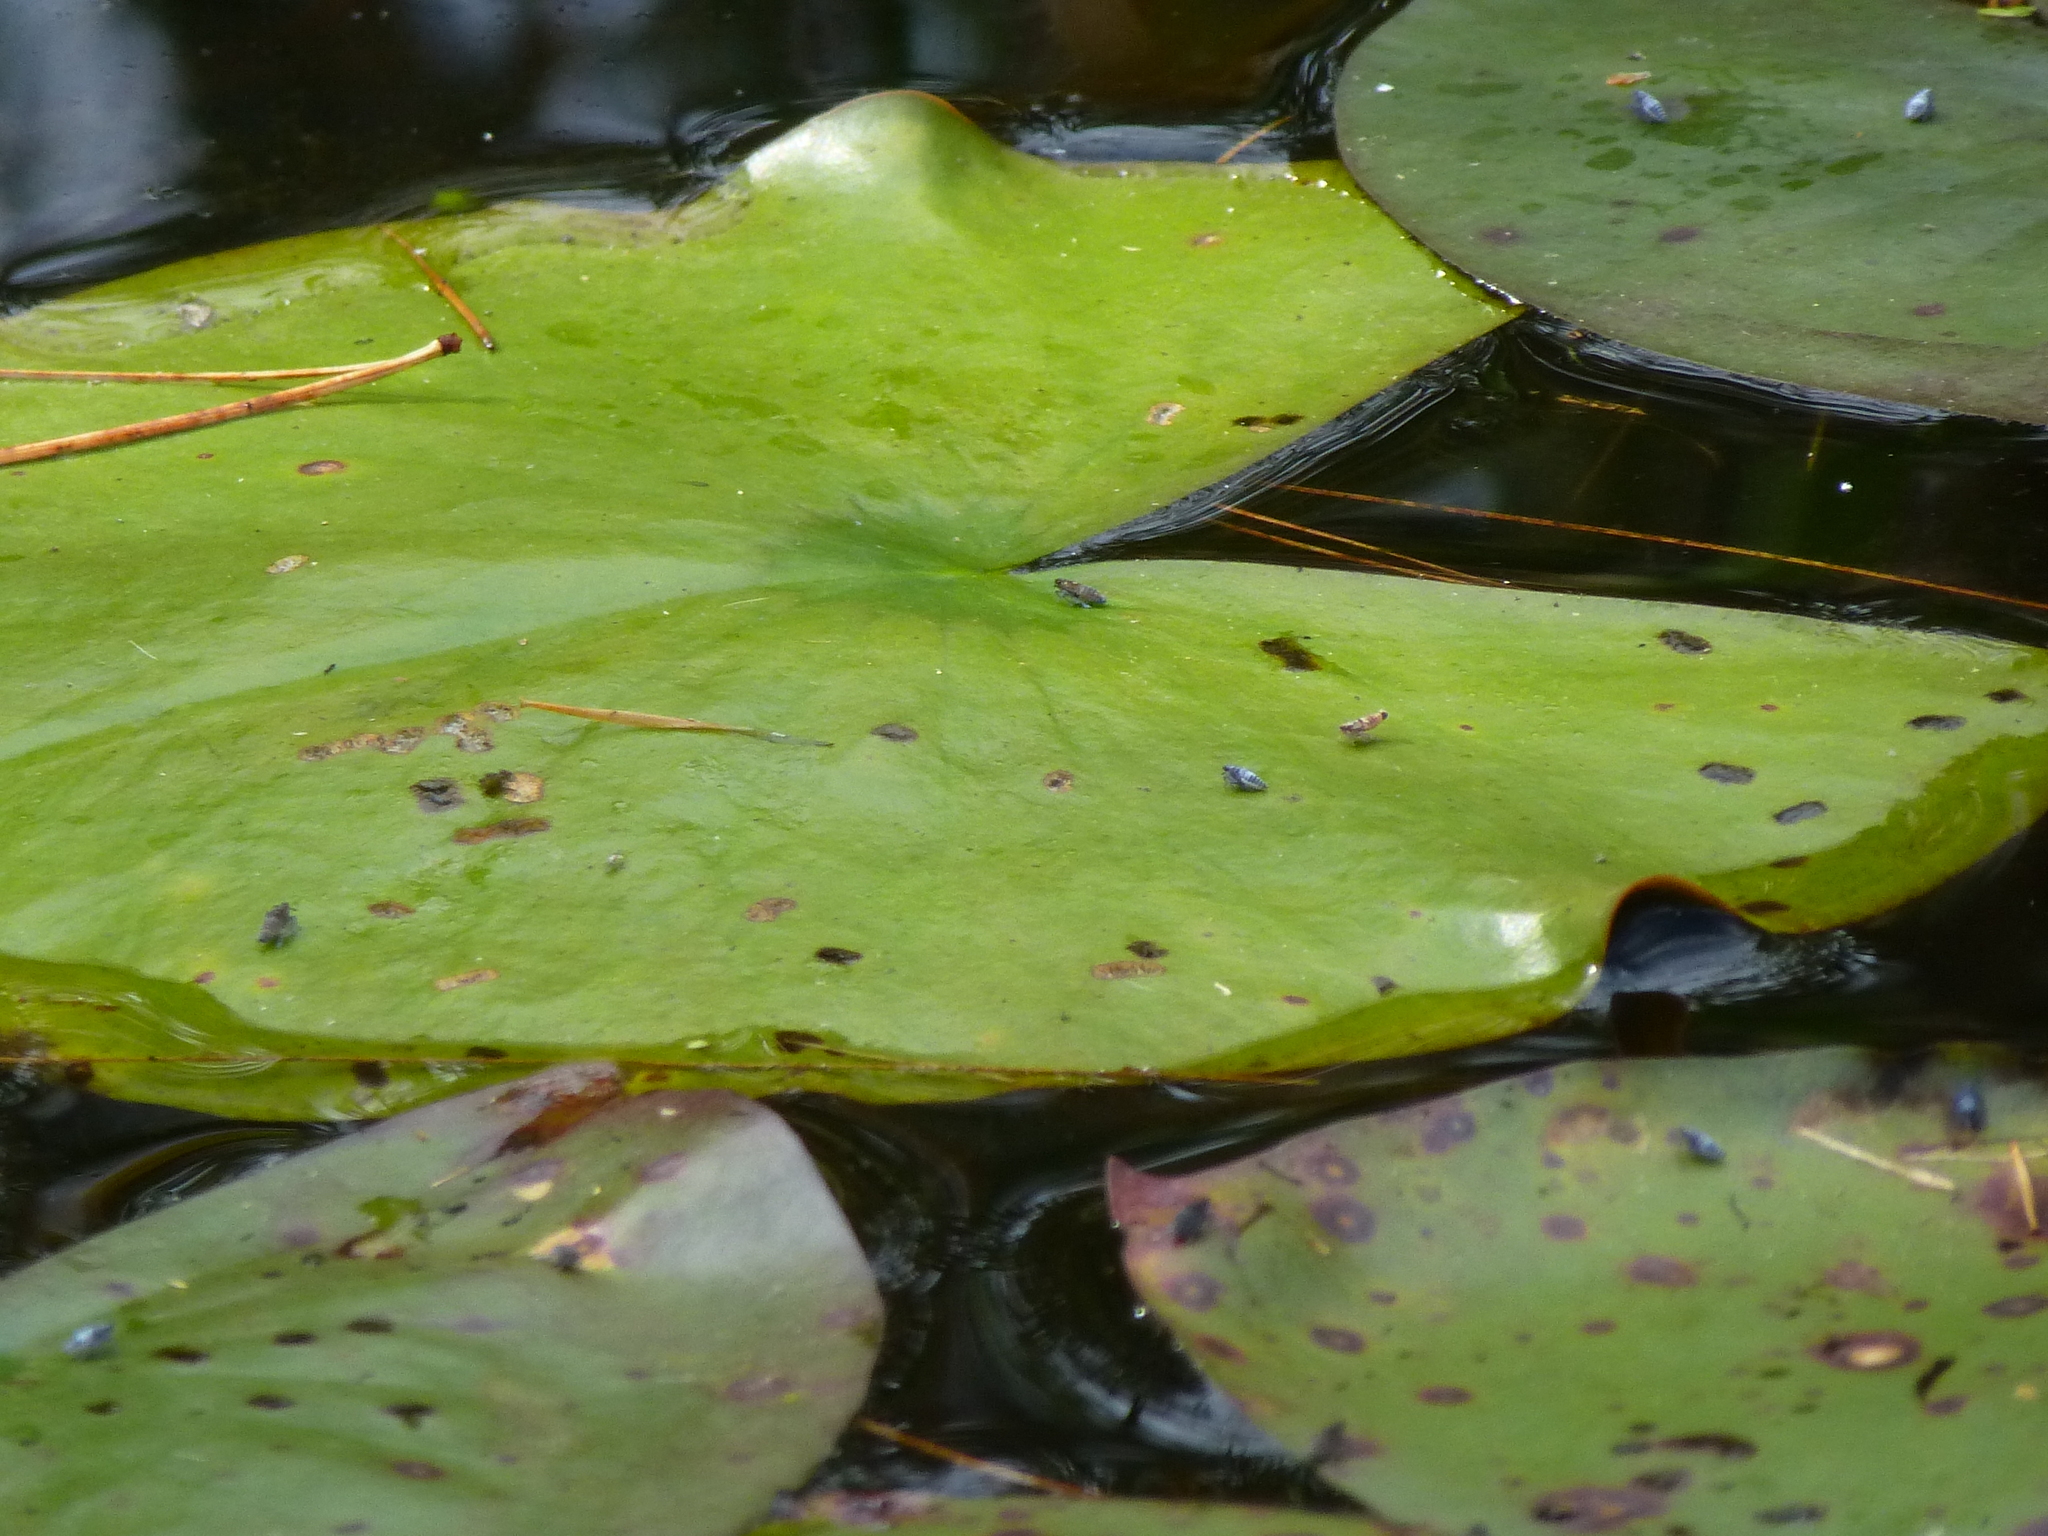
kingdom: Plantae
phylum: Tracheophyta
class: Magnoliopsida
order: Nymphaeales
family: Nymphaeaceae
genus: Nymphaea
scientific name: Nymphaea odorata
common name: Fragrant water-lily
